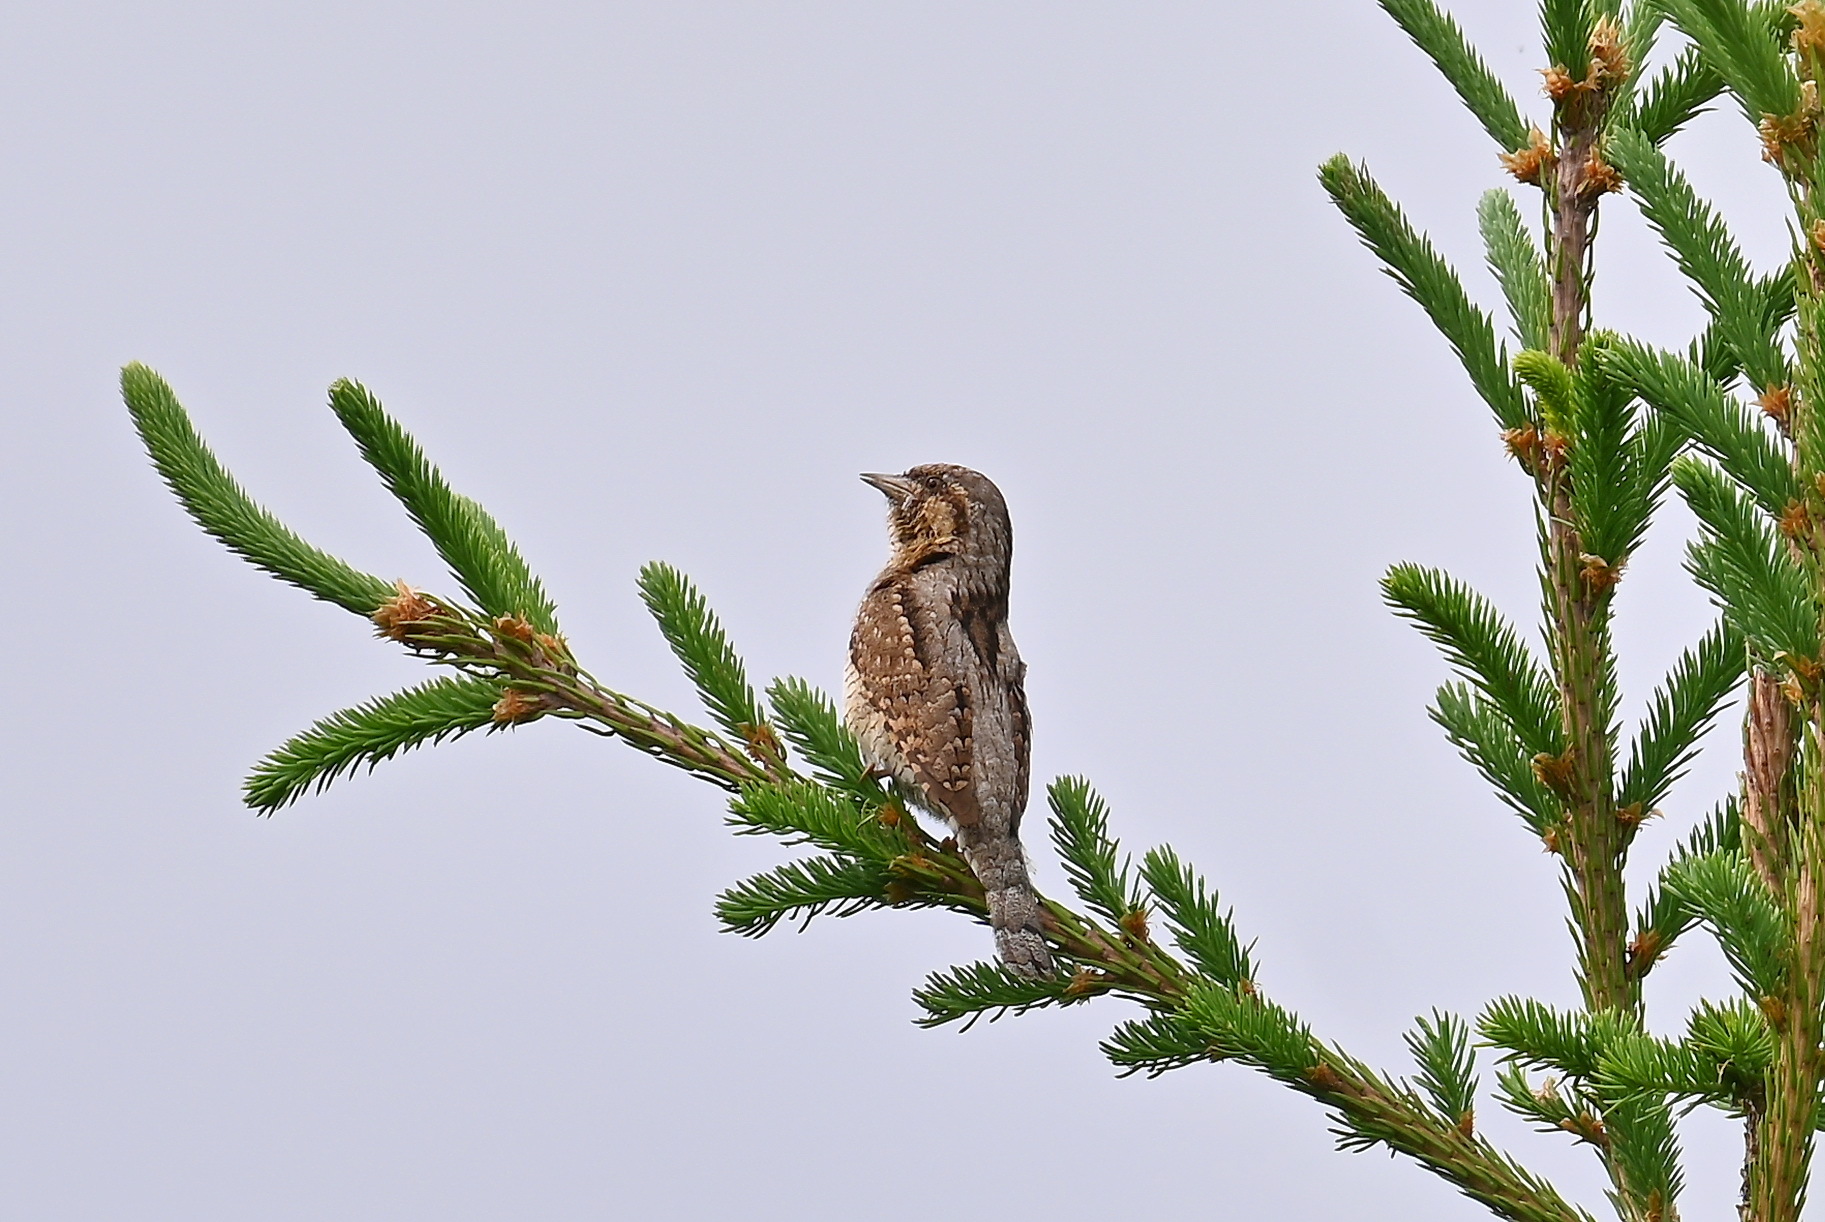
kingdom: Animalia
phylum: Chordata
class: Aves
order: Piciformes
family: Picidae
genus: Jynx
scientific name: Jynx torquilla
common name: Eurasian wryneck
